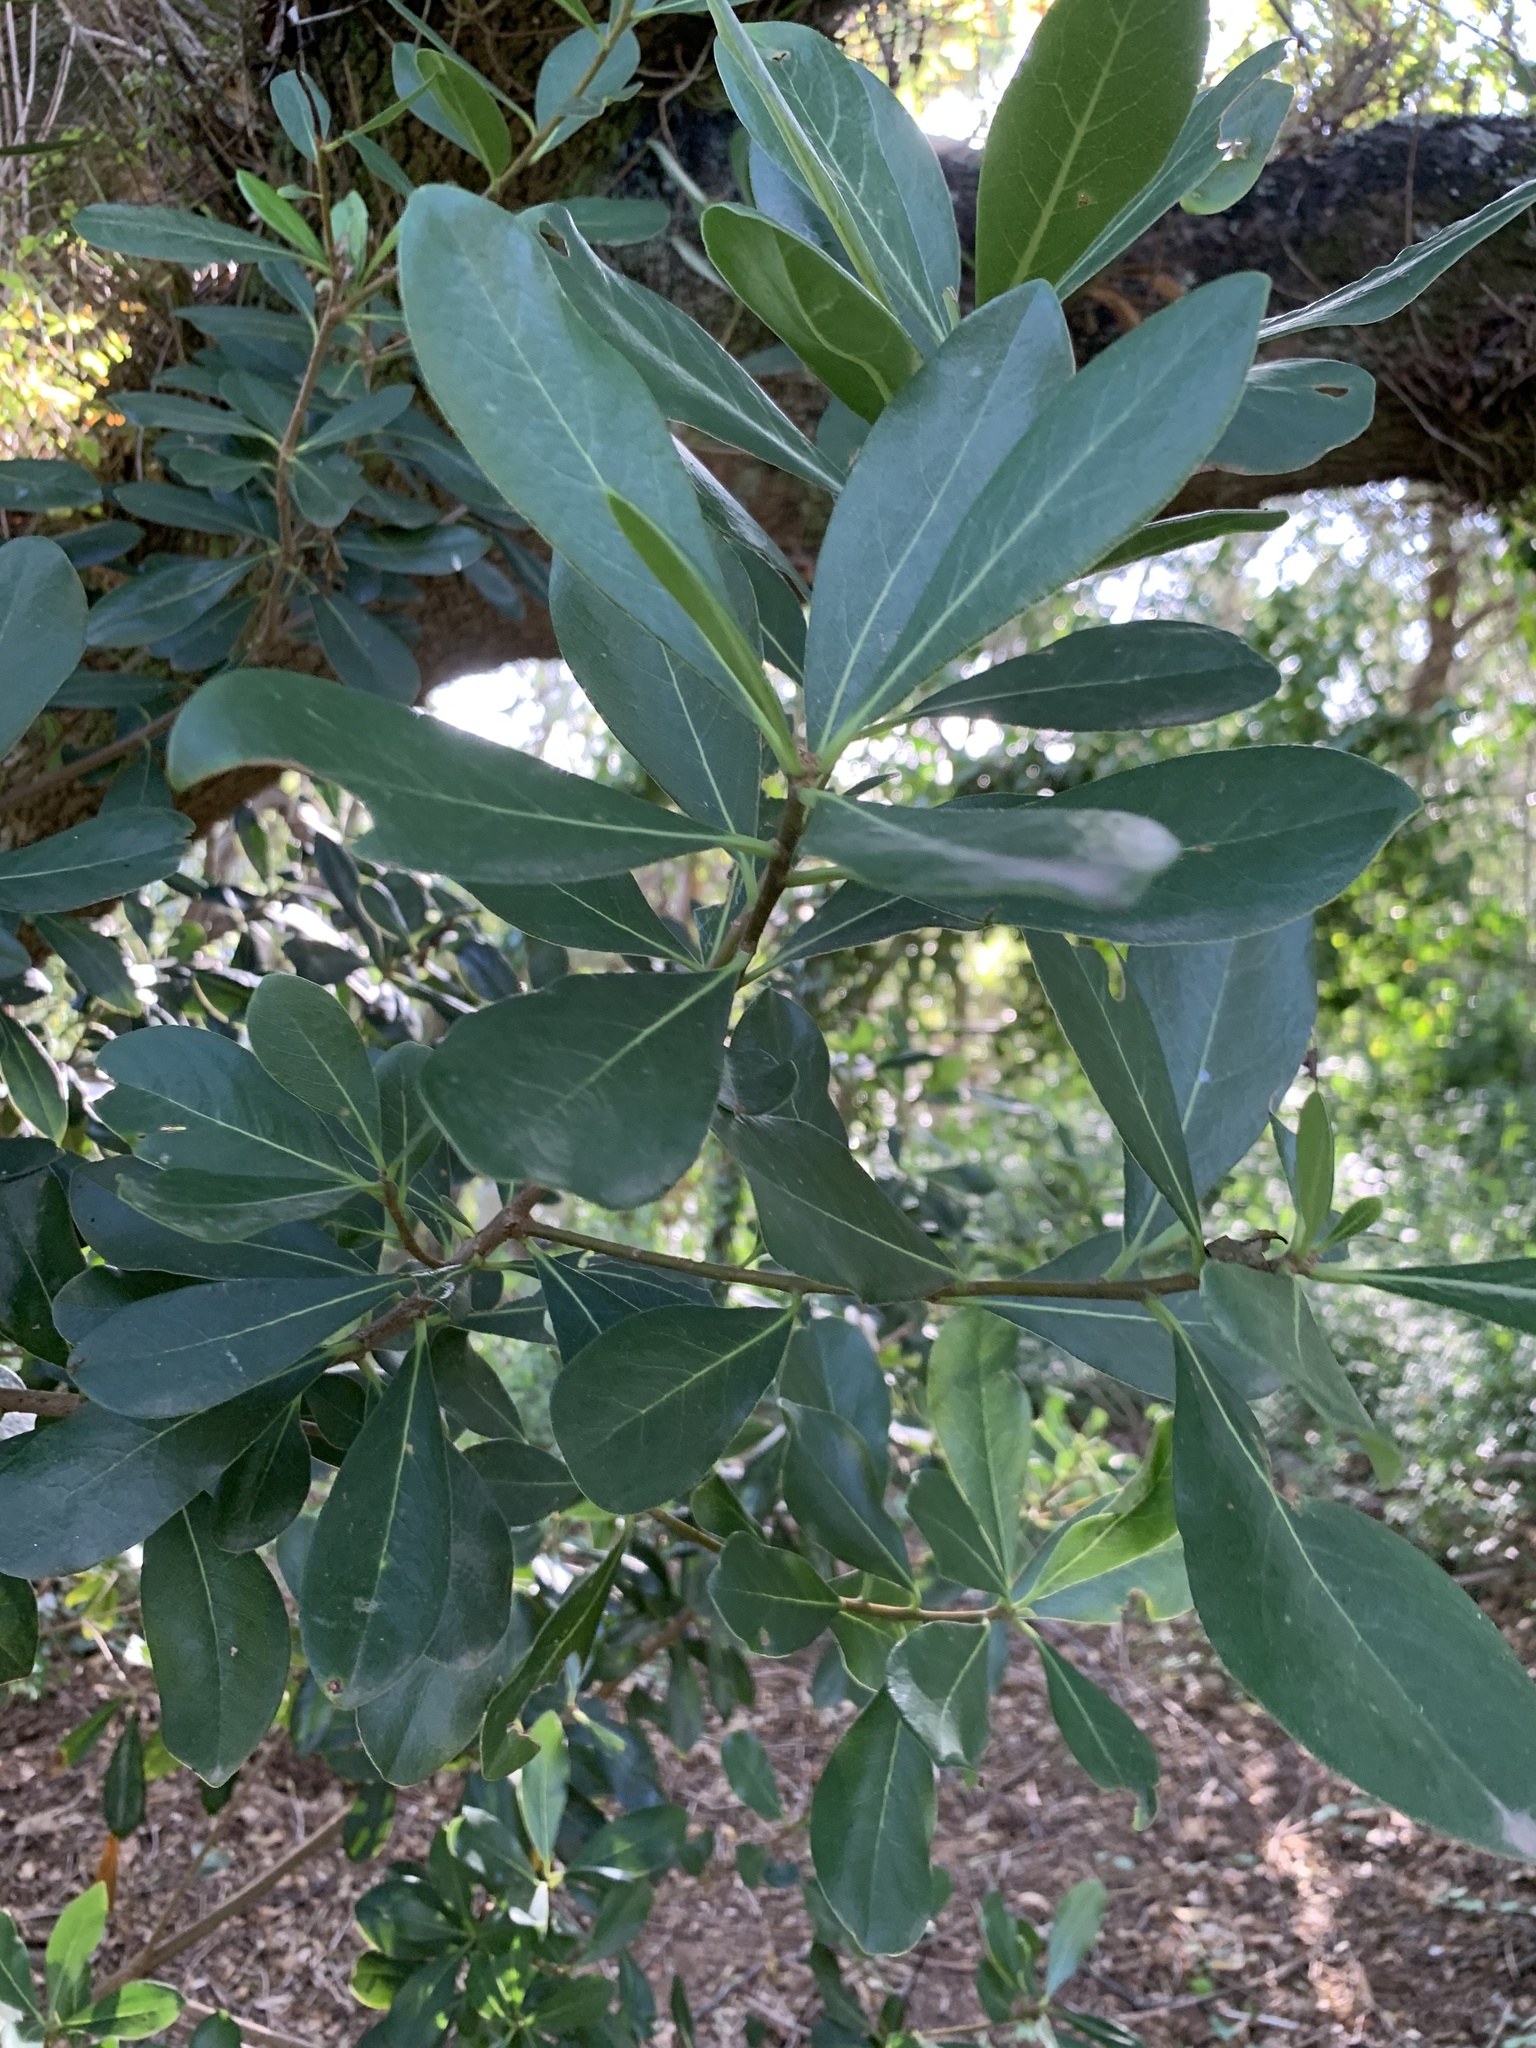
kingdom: Plantae
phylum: Tracheophyta
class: Magnoliopsida
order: Apiales
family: Pittosporaceae
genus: Pittosporum
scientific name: Pittosporum viridiflorum
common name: Cape cheesewood
